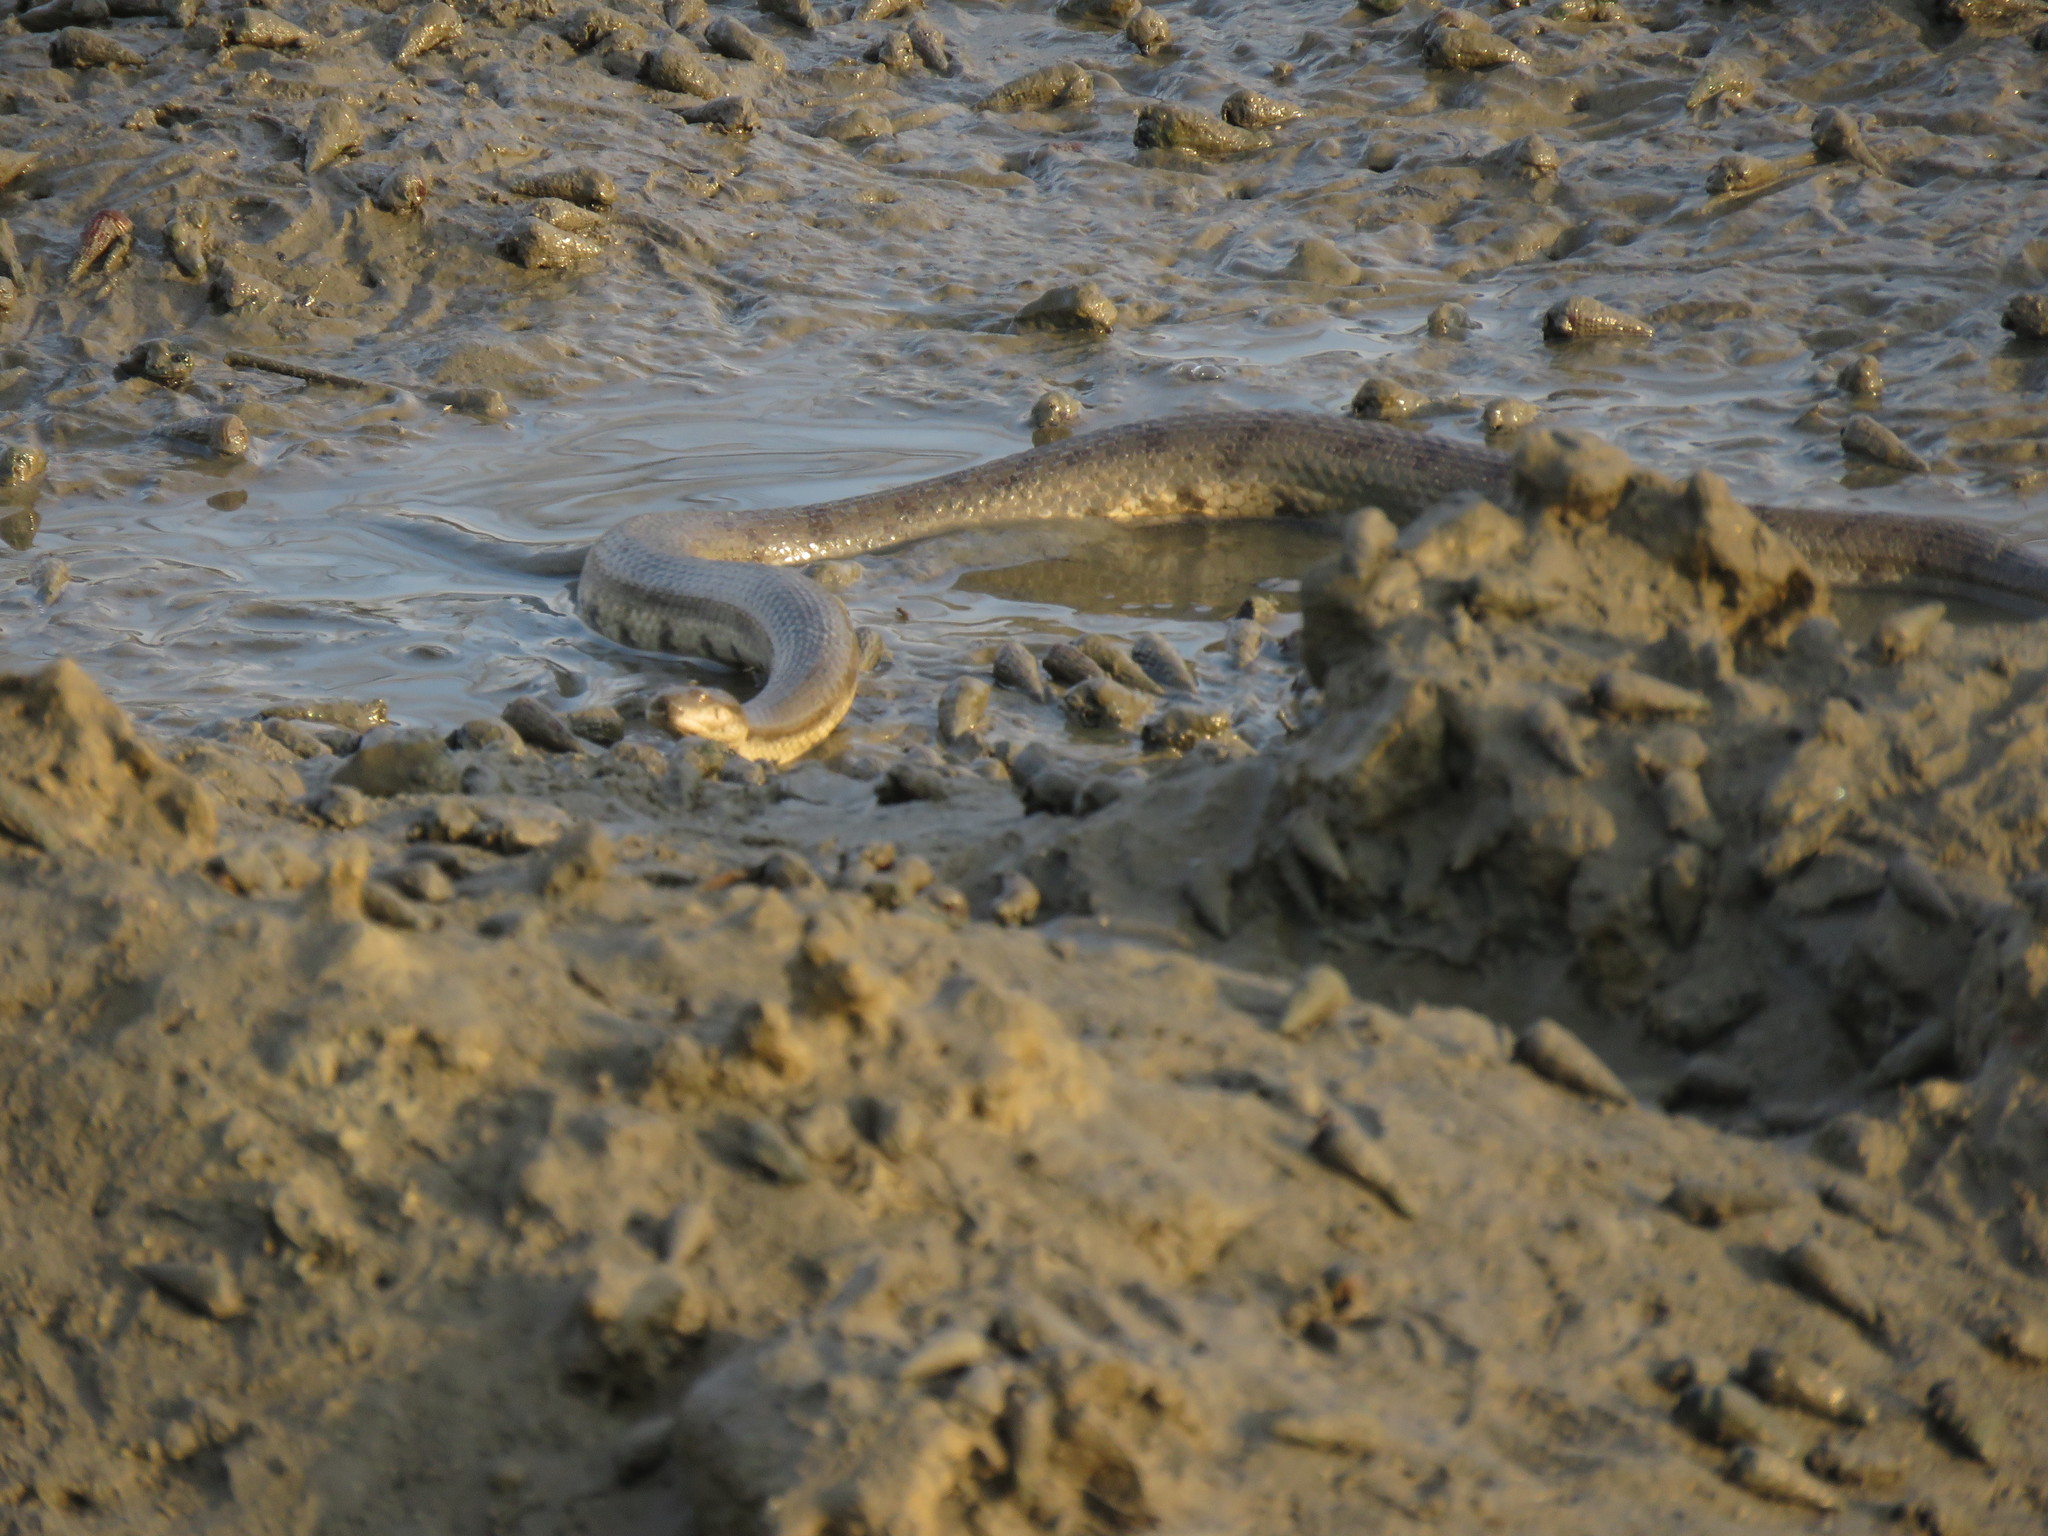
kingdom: Animalia
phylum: Chordata
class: Squamata
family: Homalopsidae
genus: Cerberus
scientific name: Cerberus rynchops
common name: Dog-faced water snake
